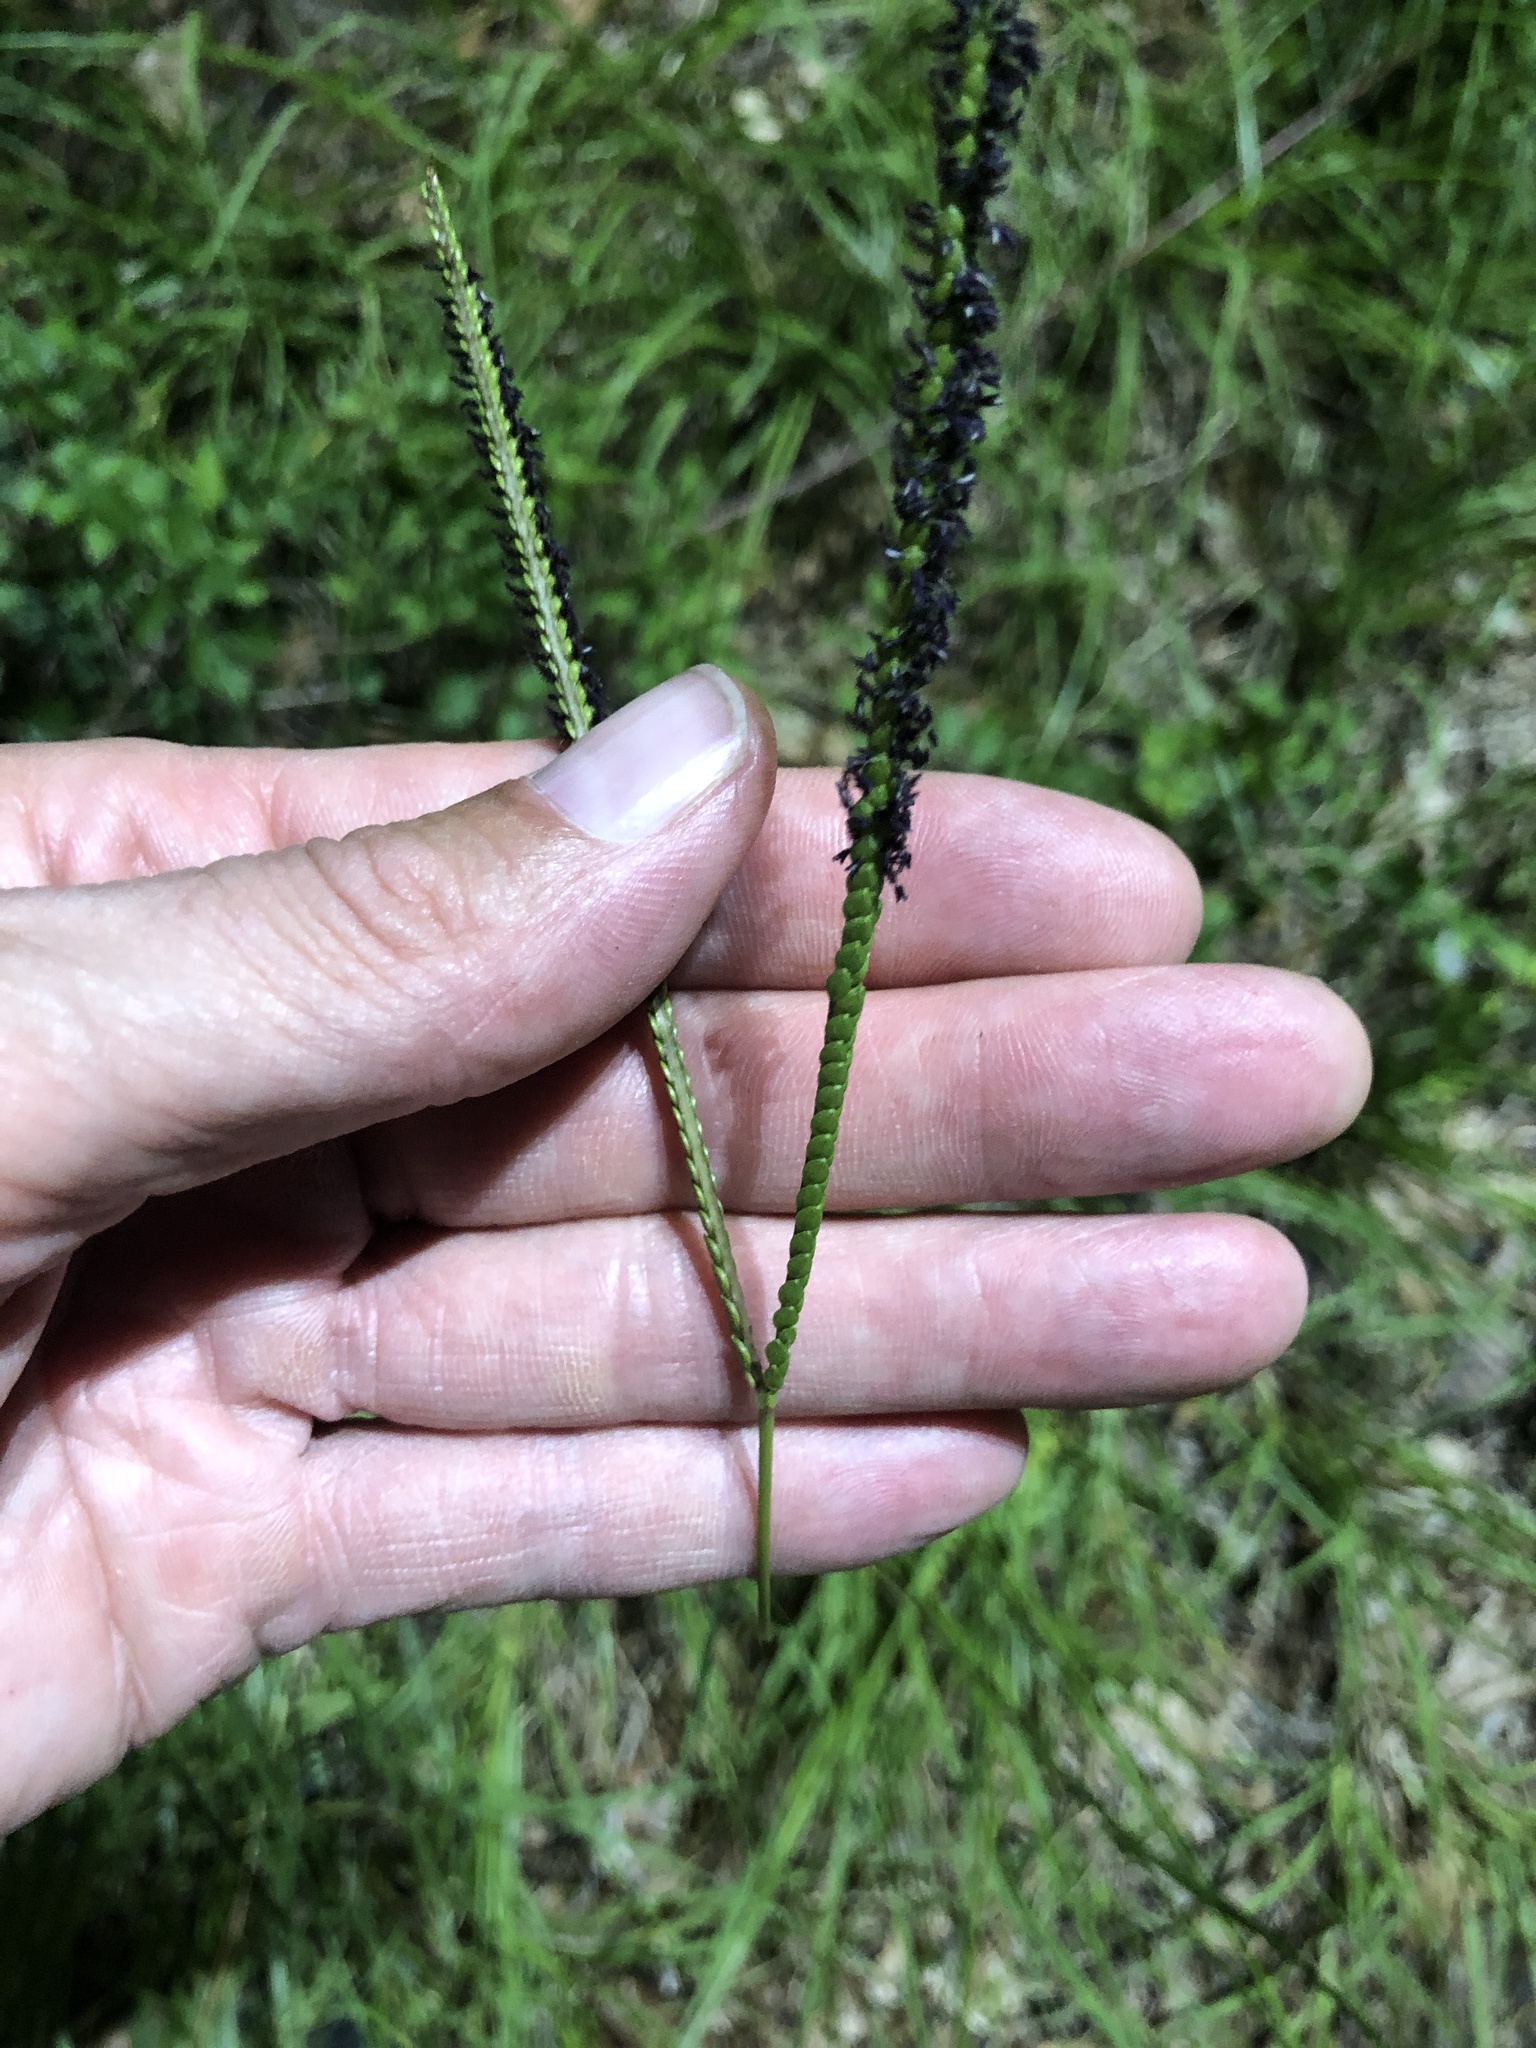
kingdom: Plantae
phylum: Tracheophyta
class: Liliopsida
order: Poales
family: Poaceae
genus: Paspalum
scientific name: Paspalum notatum
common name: Bahiagrass
